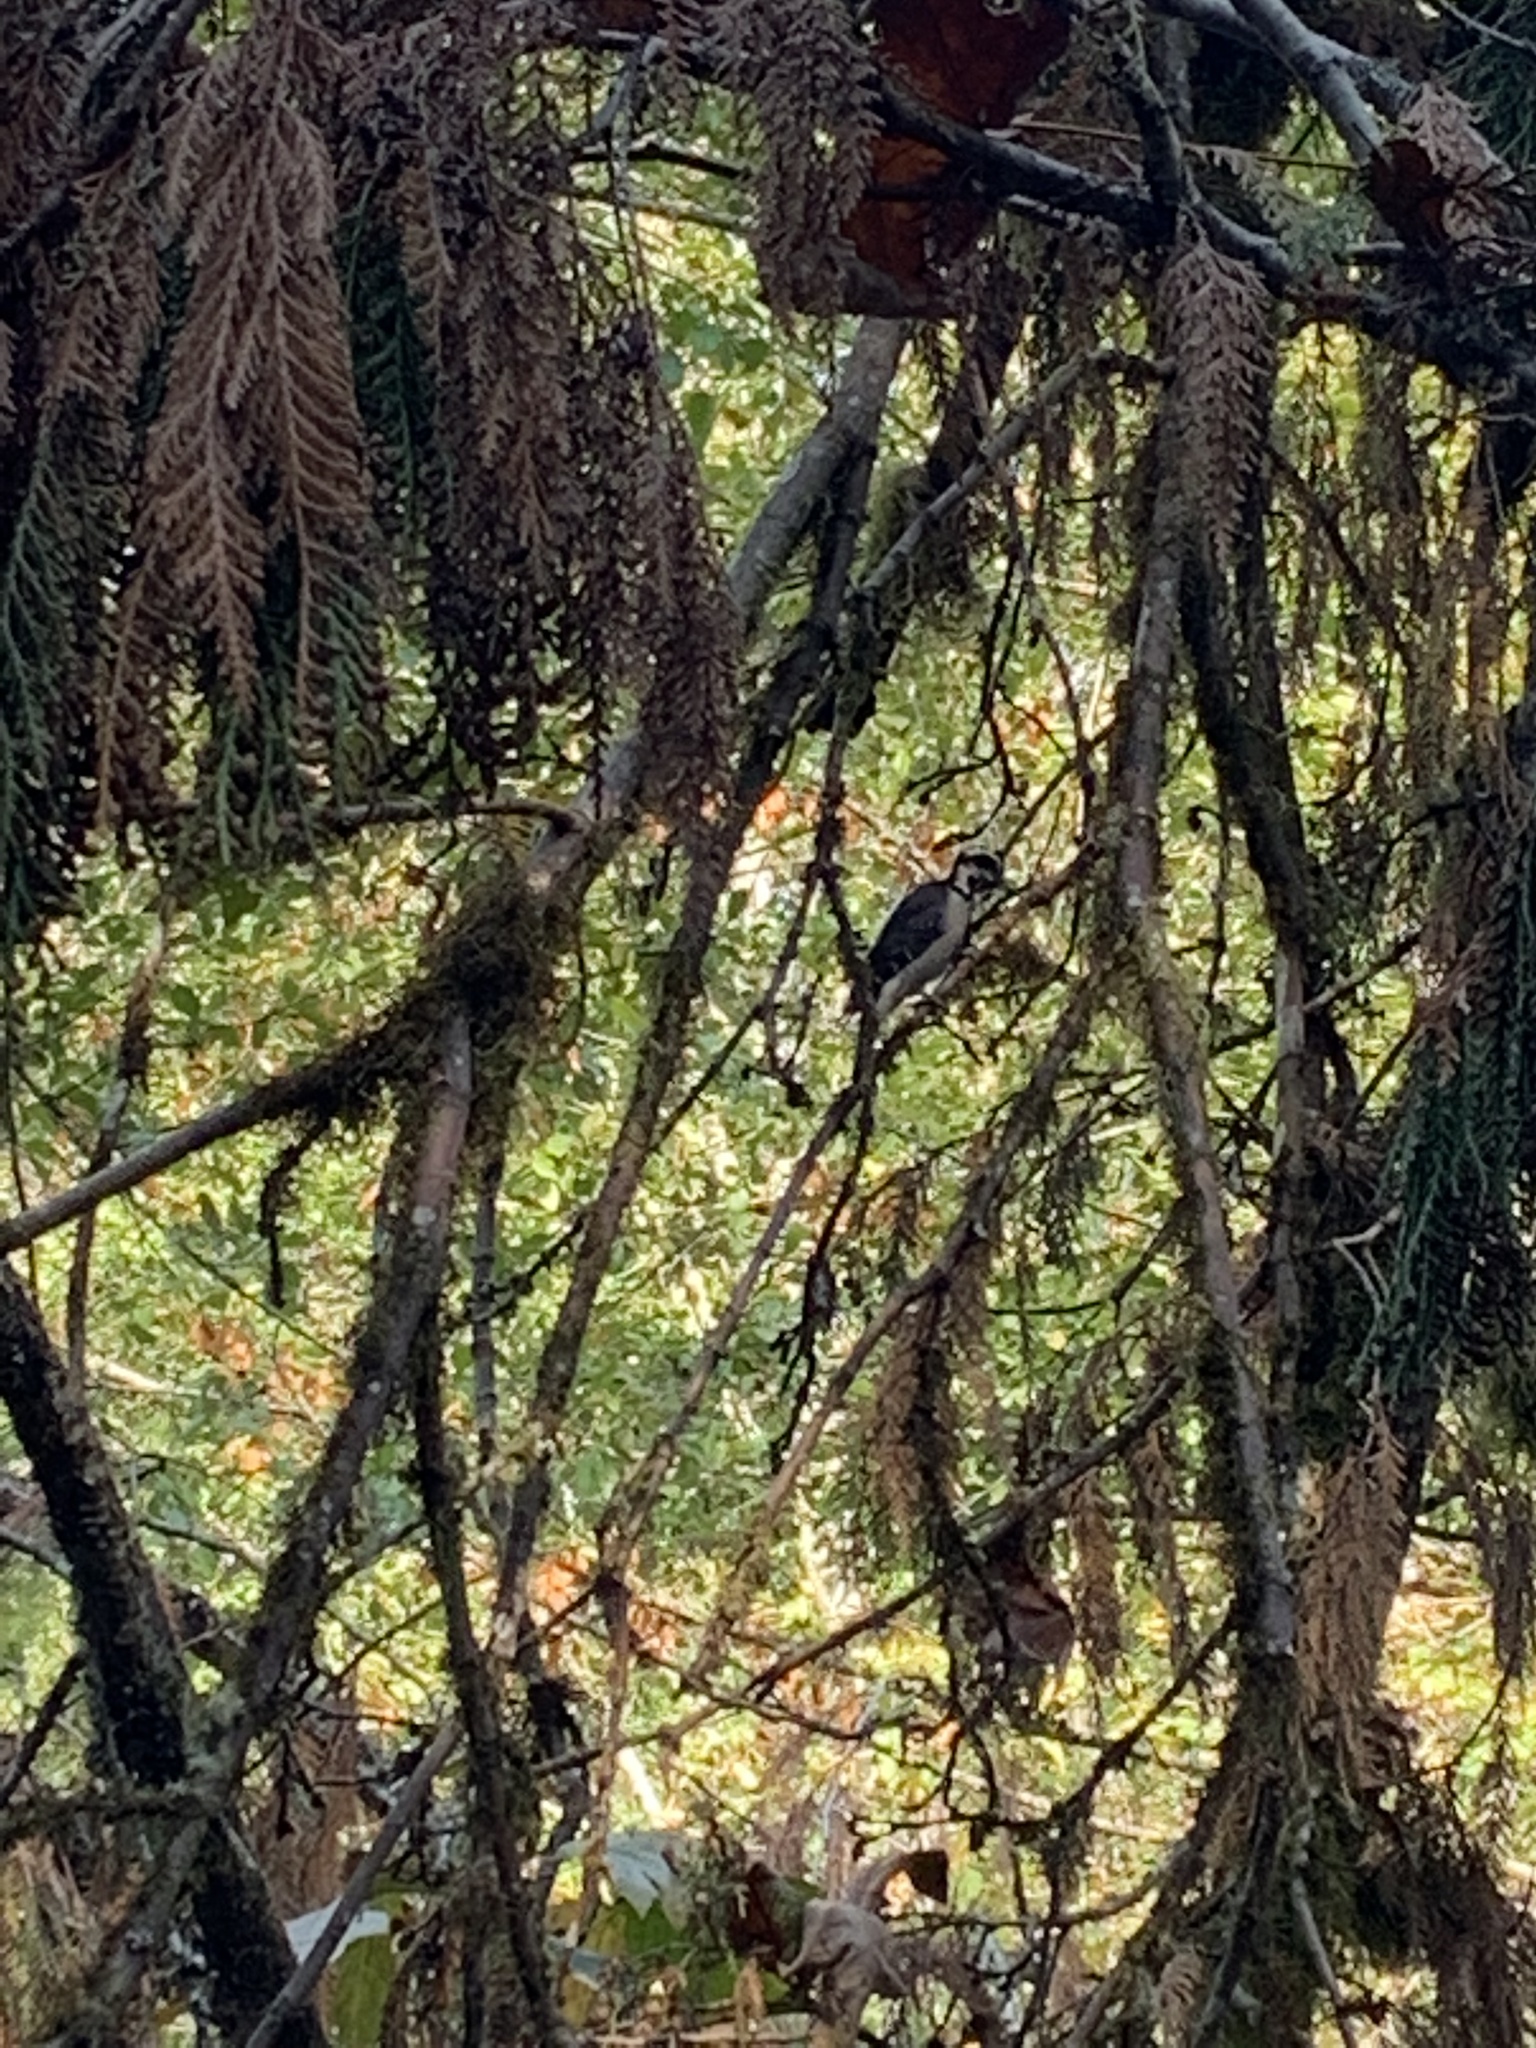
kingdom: Animalia
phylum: Chordata
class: Aves
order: Piciformes
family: Picidae
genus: Leuconotopicus
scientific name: Leuconotopicus villosus
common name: Hairy woodpecker
